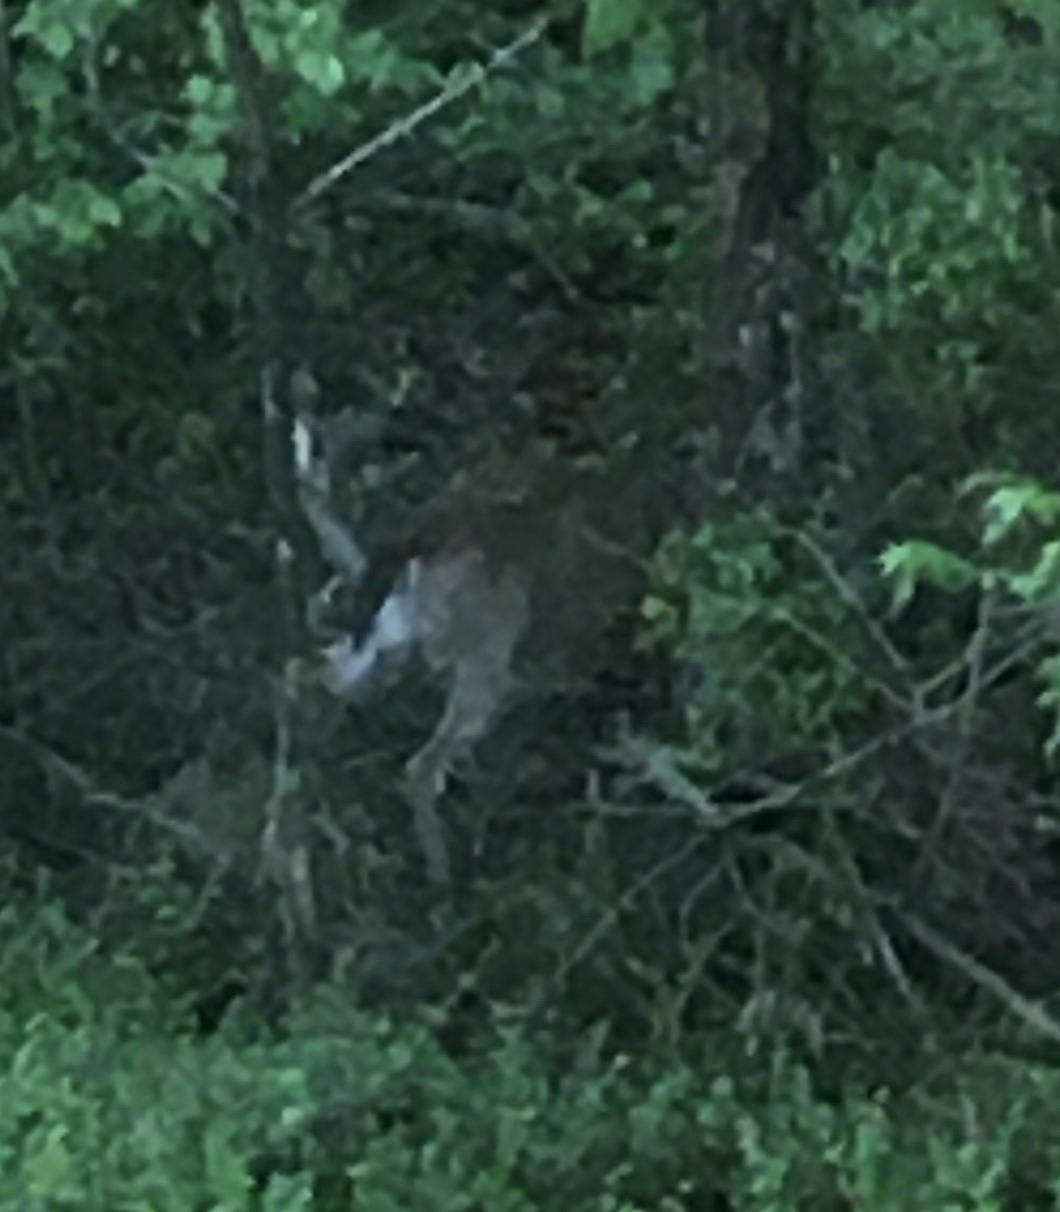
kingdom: Animalia
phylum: Chordata
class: Mammalia
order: Artiodactyla
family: Cervidae
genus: Odocoileus
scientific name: Odocoileus virginianus
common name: White-tailed deer
